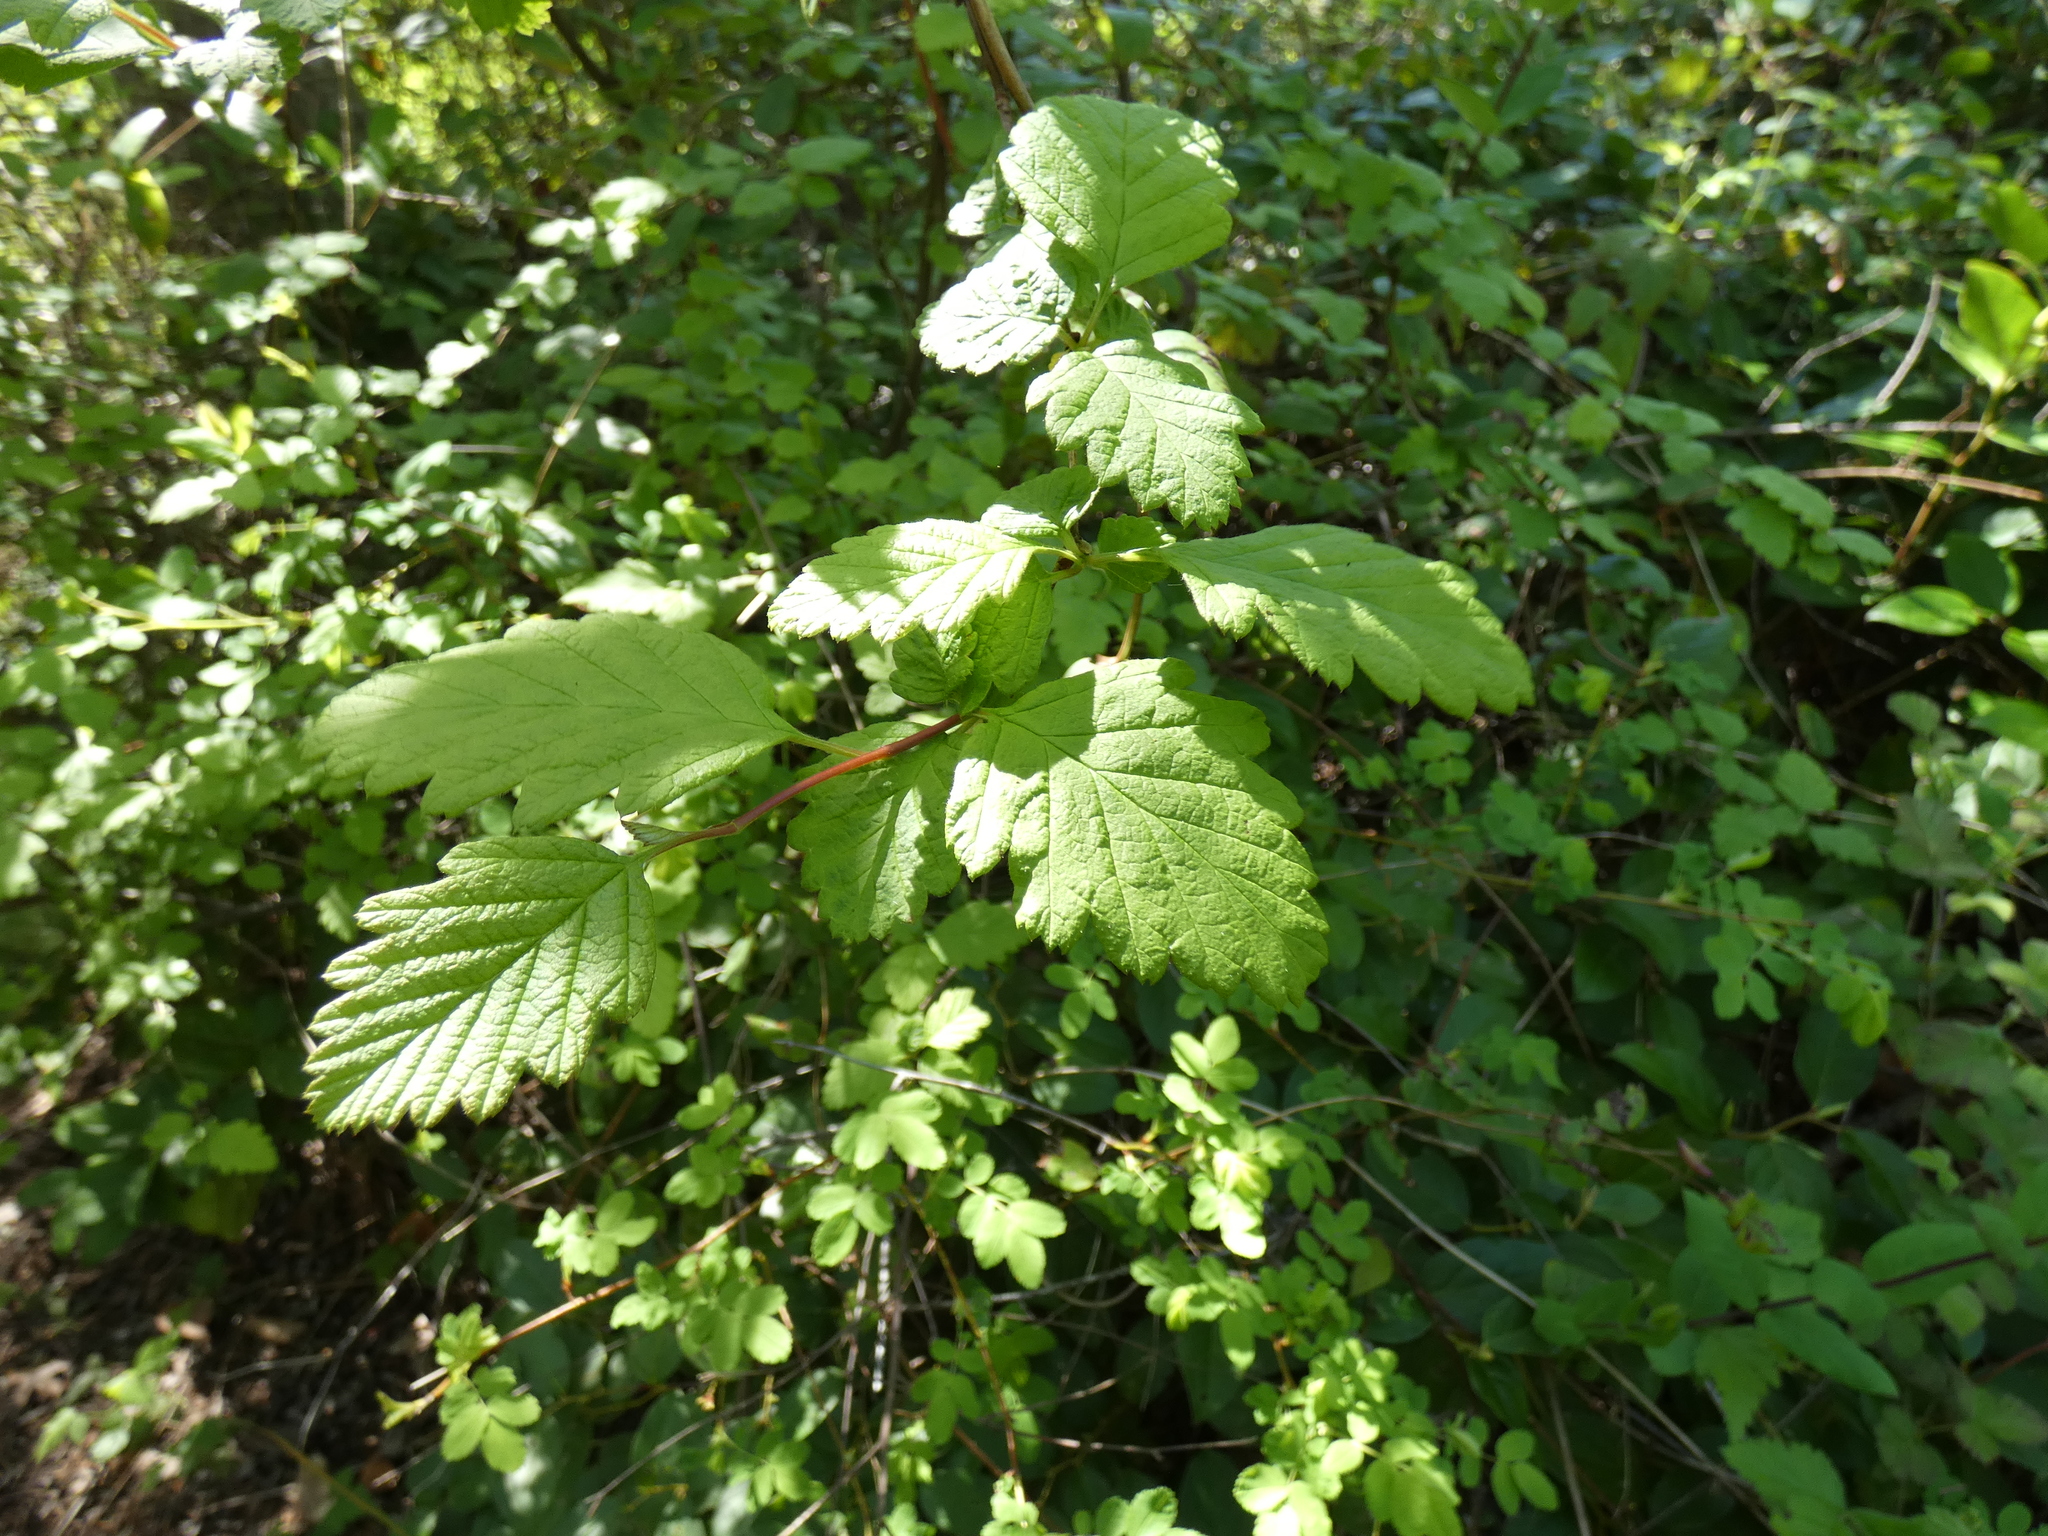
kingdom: Plantae
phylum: Tracheophyta
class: Magnoliopsida
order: Rosales
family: Rosaceae
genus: Holodiscus
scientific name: Holodiscus discolor
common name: Oceanspray
